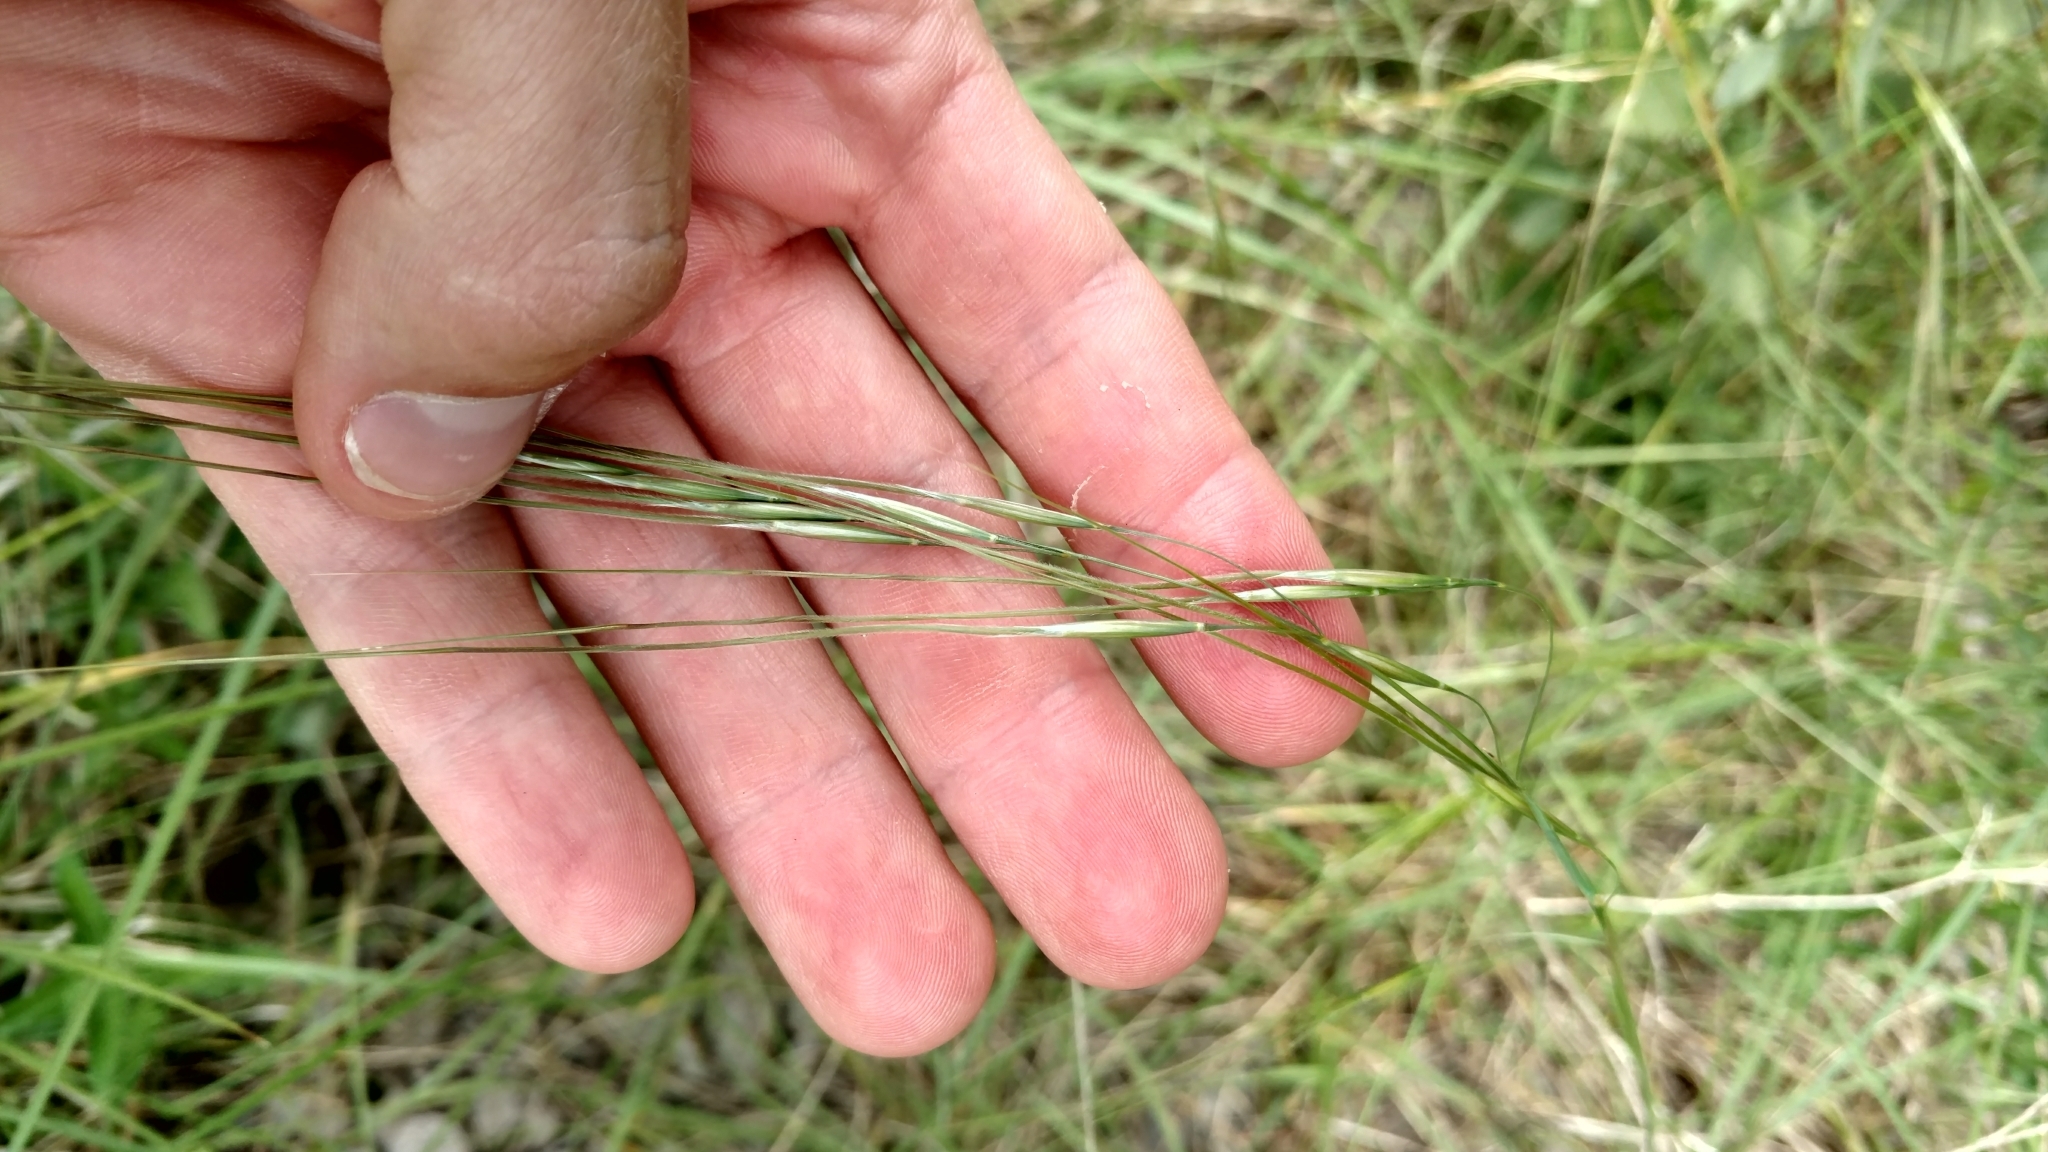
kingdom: Plantae
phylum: Tracheophyta
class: Liliopsida
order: Poales
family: Poaceae
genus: Nassella
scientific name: Nassella leucotricha
